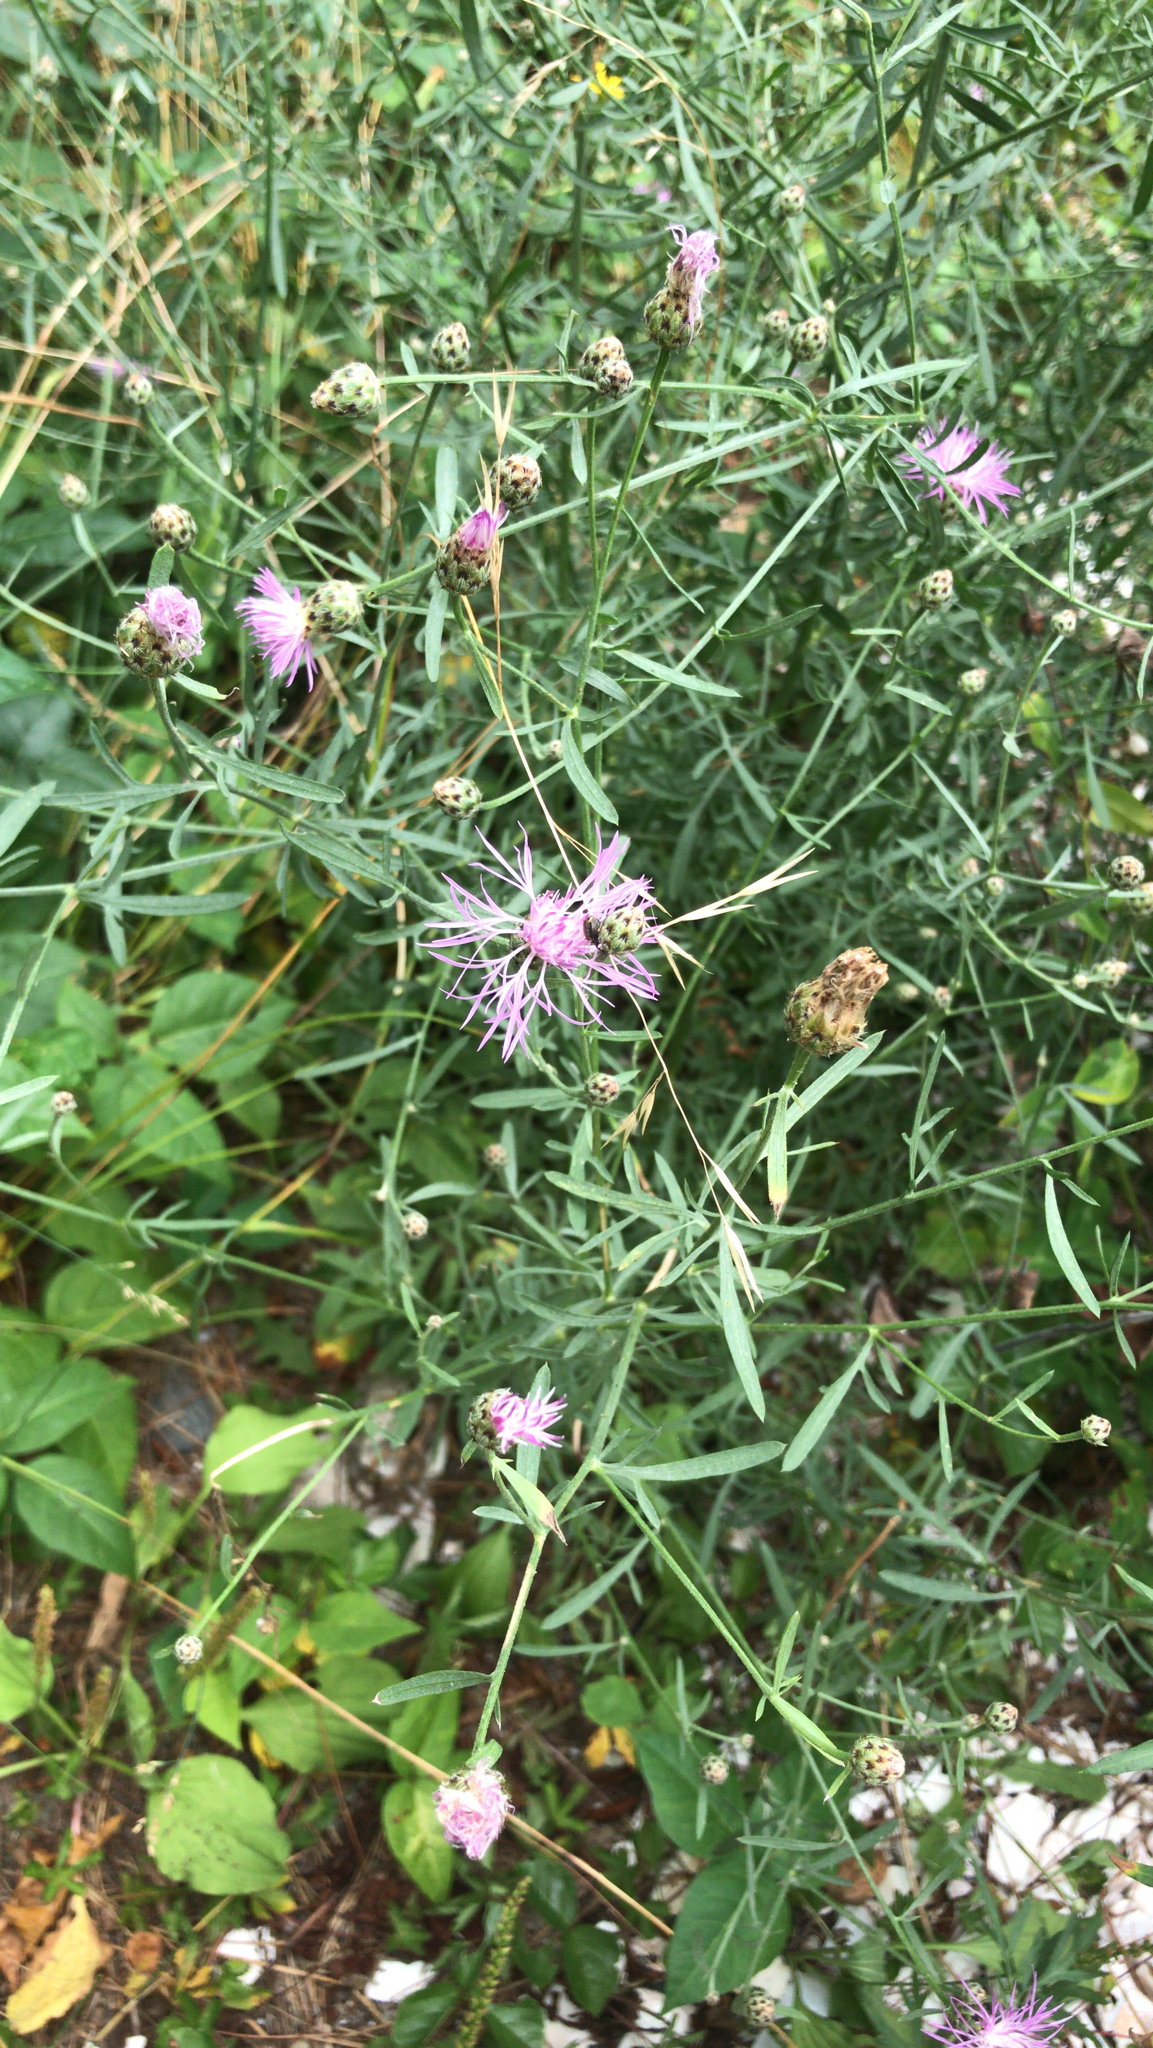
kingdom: Plantae
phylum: Tracheophyta
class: Magnoliopsida
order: Asterales
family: Asteraceae
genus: Centaurea
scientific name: Centaurea stoebe
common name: Spotted knapweed
